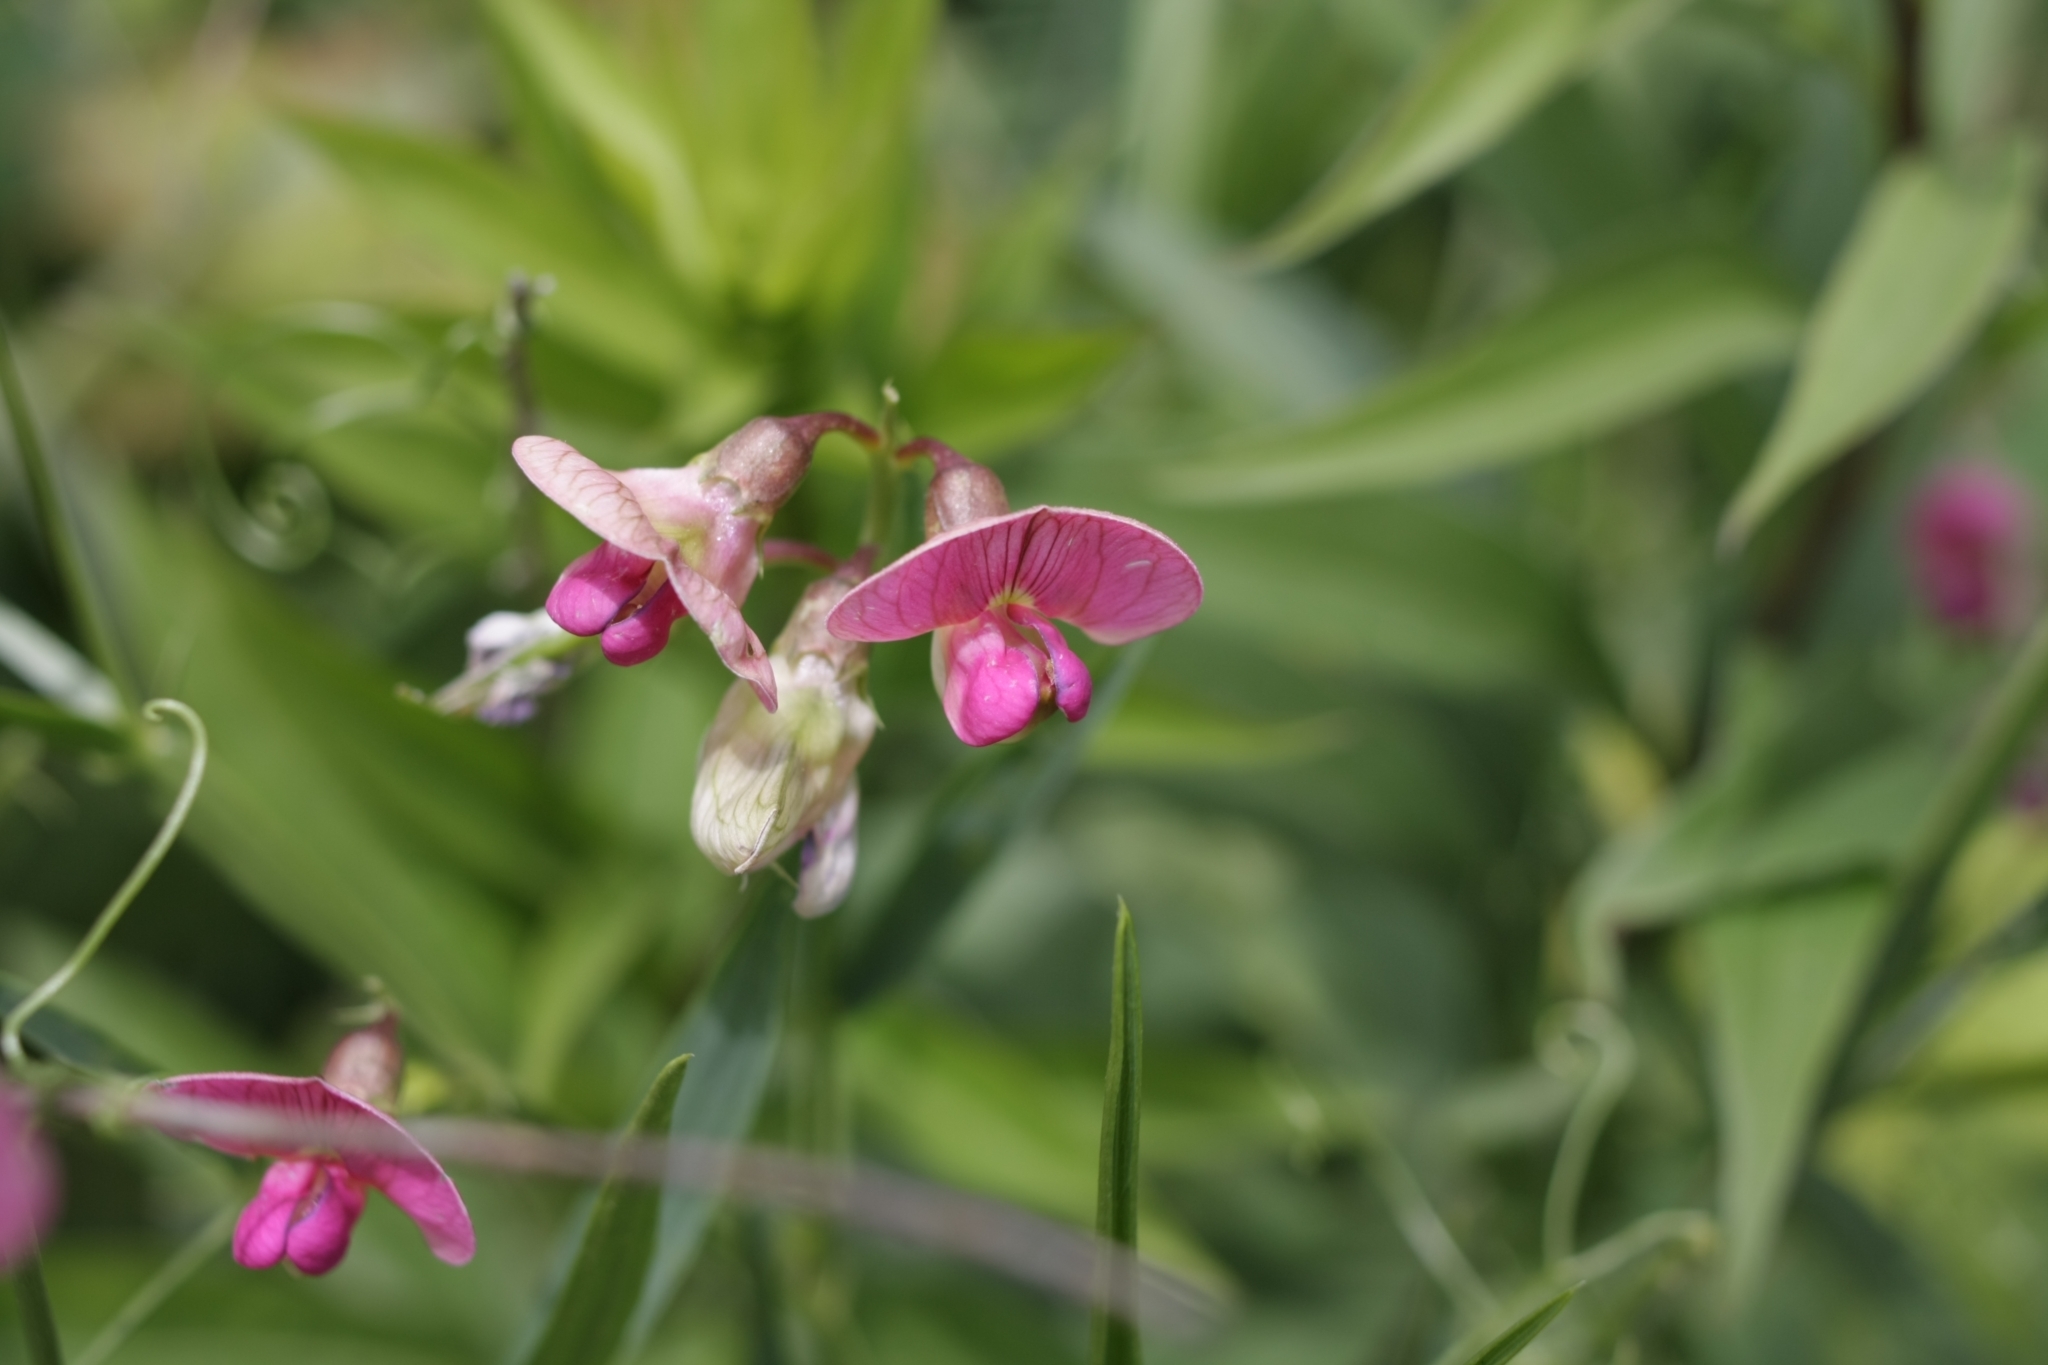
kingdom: Plantae
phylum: Tracheophyta
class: Magnoliopsida
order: Fabales
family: Fabaceae
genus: Lathyrus
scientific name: Lathyrus sylvestris
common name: Flat pea
